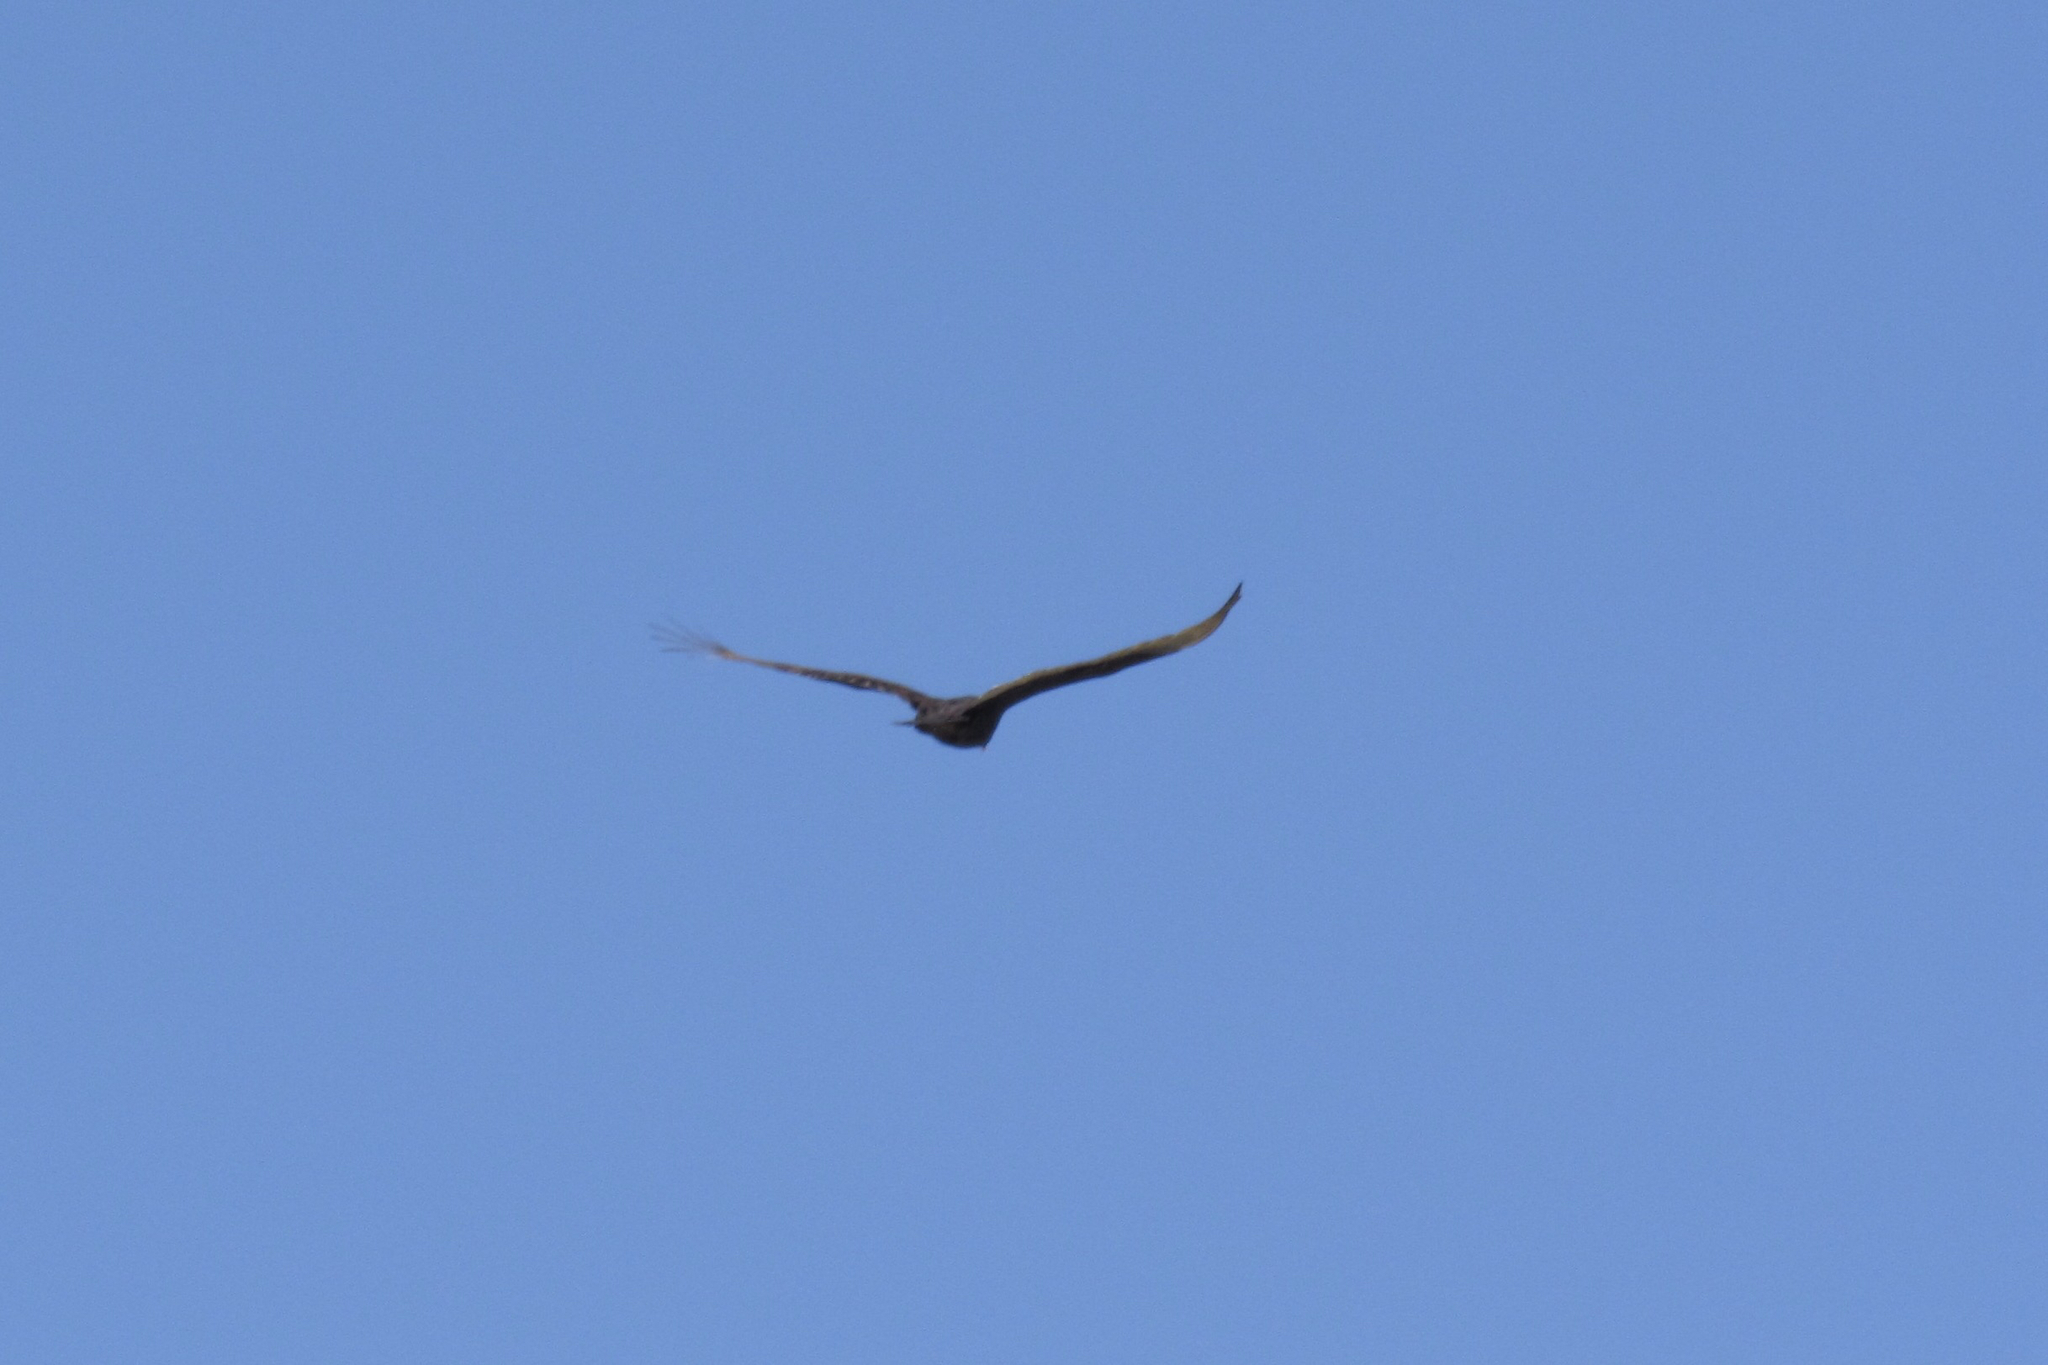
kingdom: Animalia
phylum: Chordata
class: Aves
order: Accipitriformes
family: Cathartidae
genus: Cathartes
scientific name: Cathartes aura
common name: Turkey vulture
